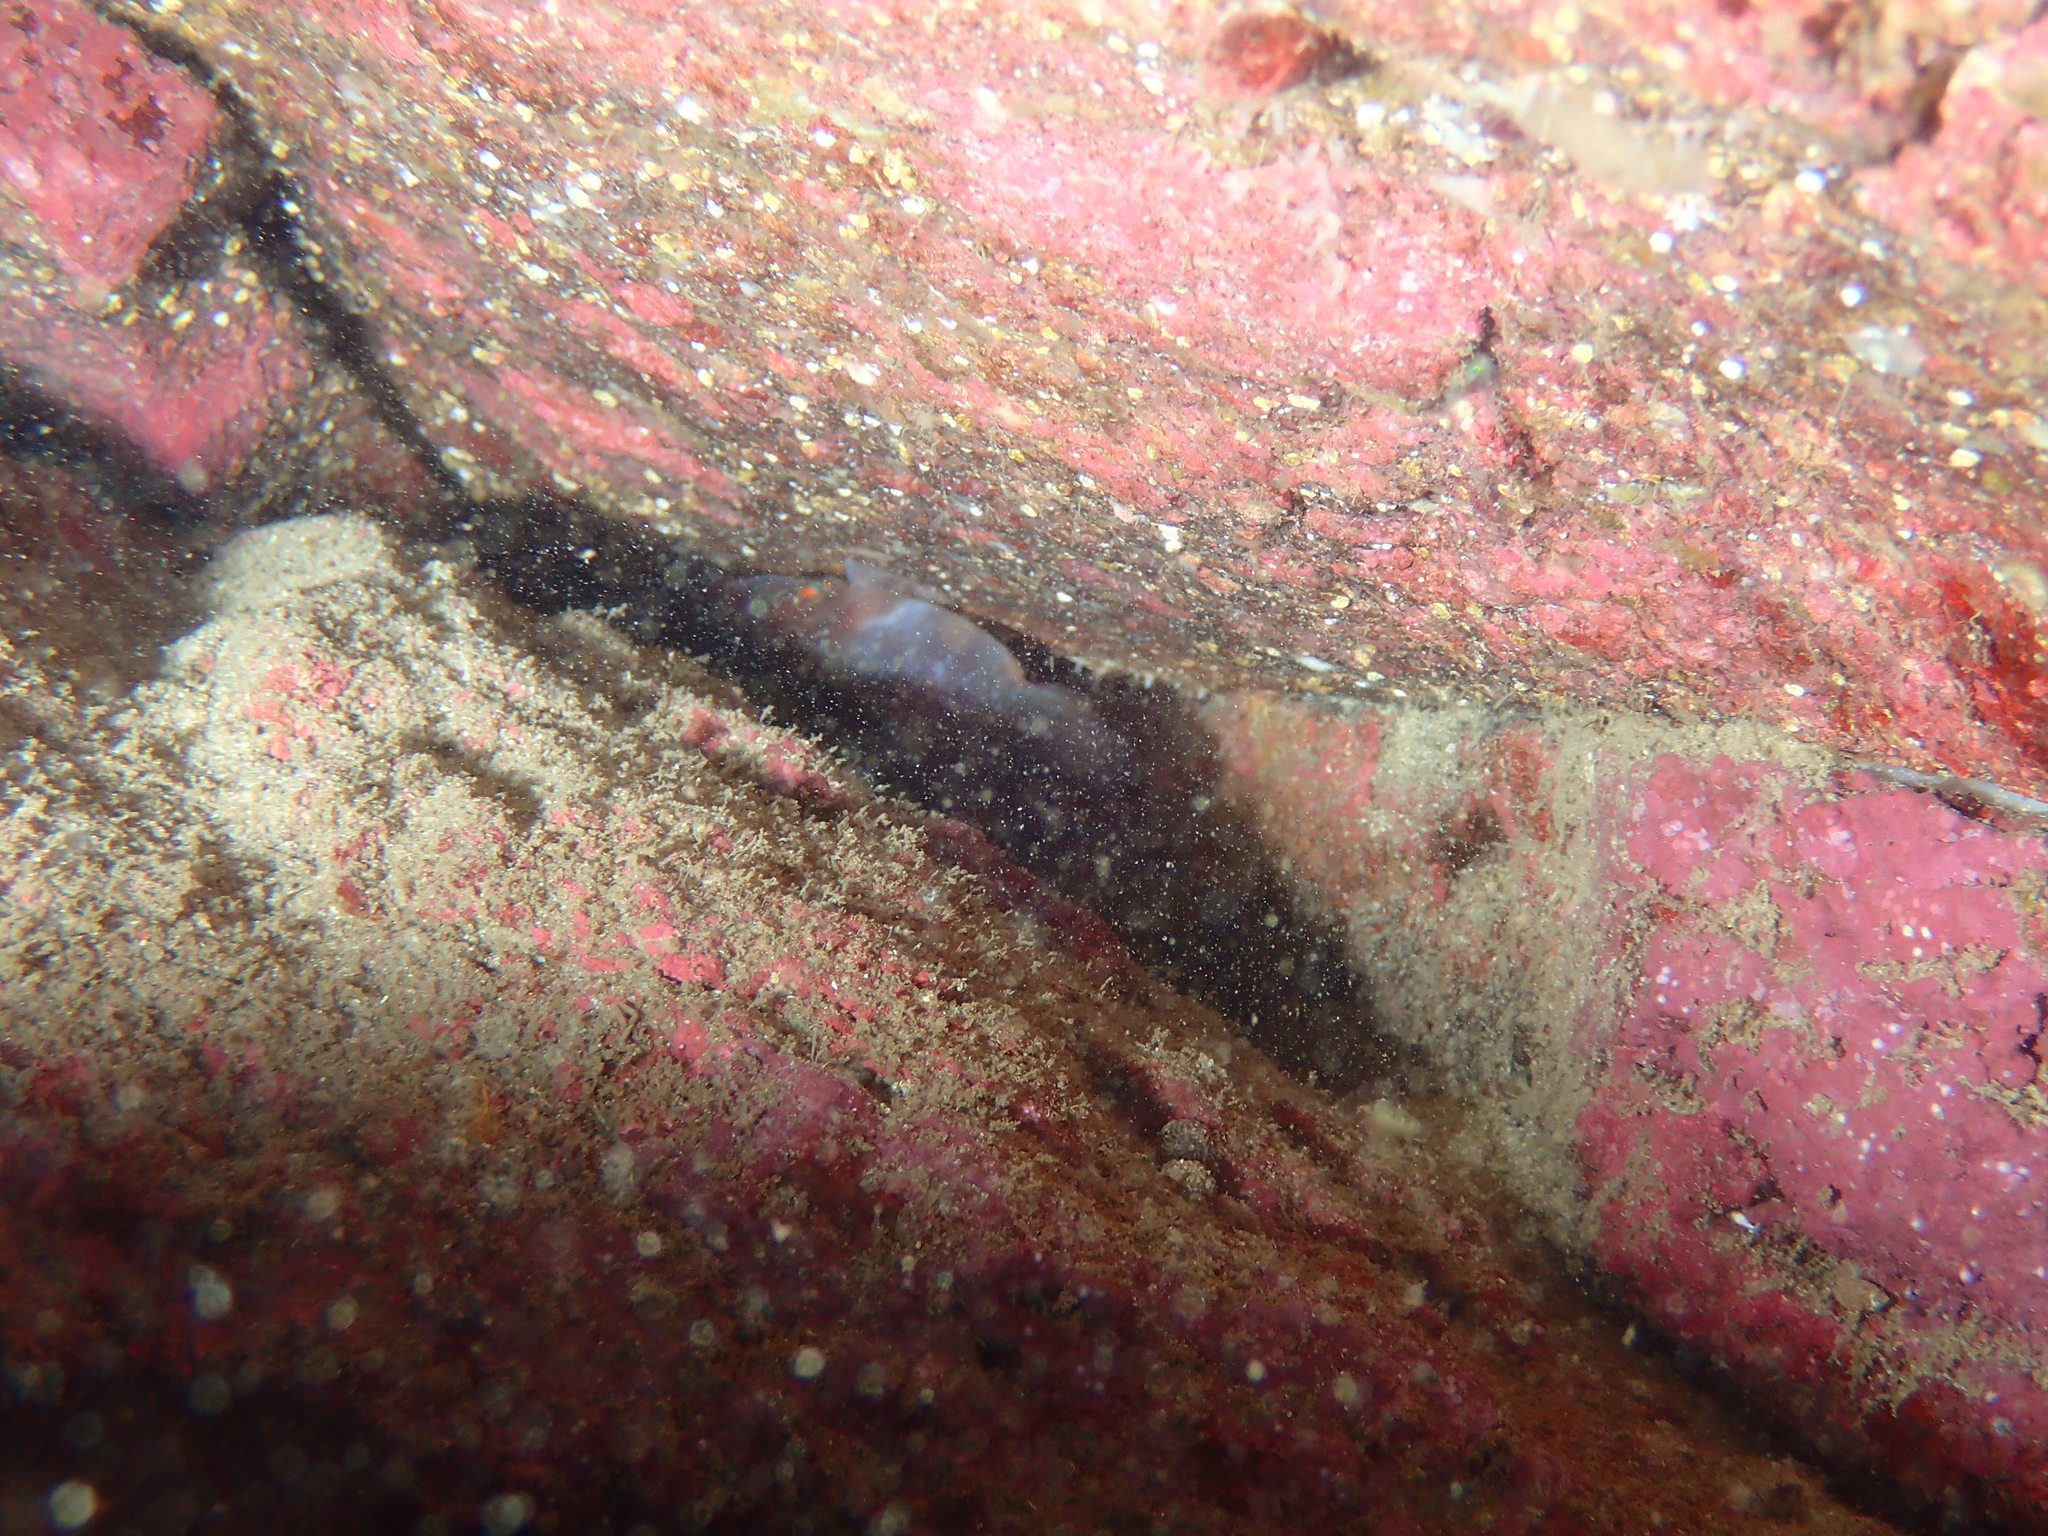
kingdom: Animalia
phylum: Chordata
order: Gobiesociformes
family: Gobiesocidae
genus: Lepadogaster
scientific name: Lepadogaster candolii
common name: Connemarra clingfish
